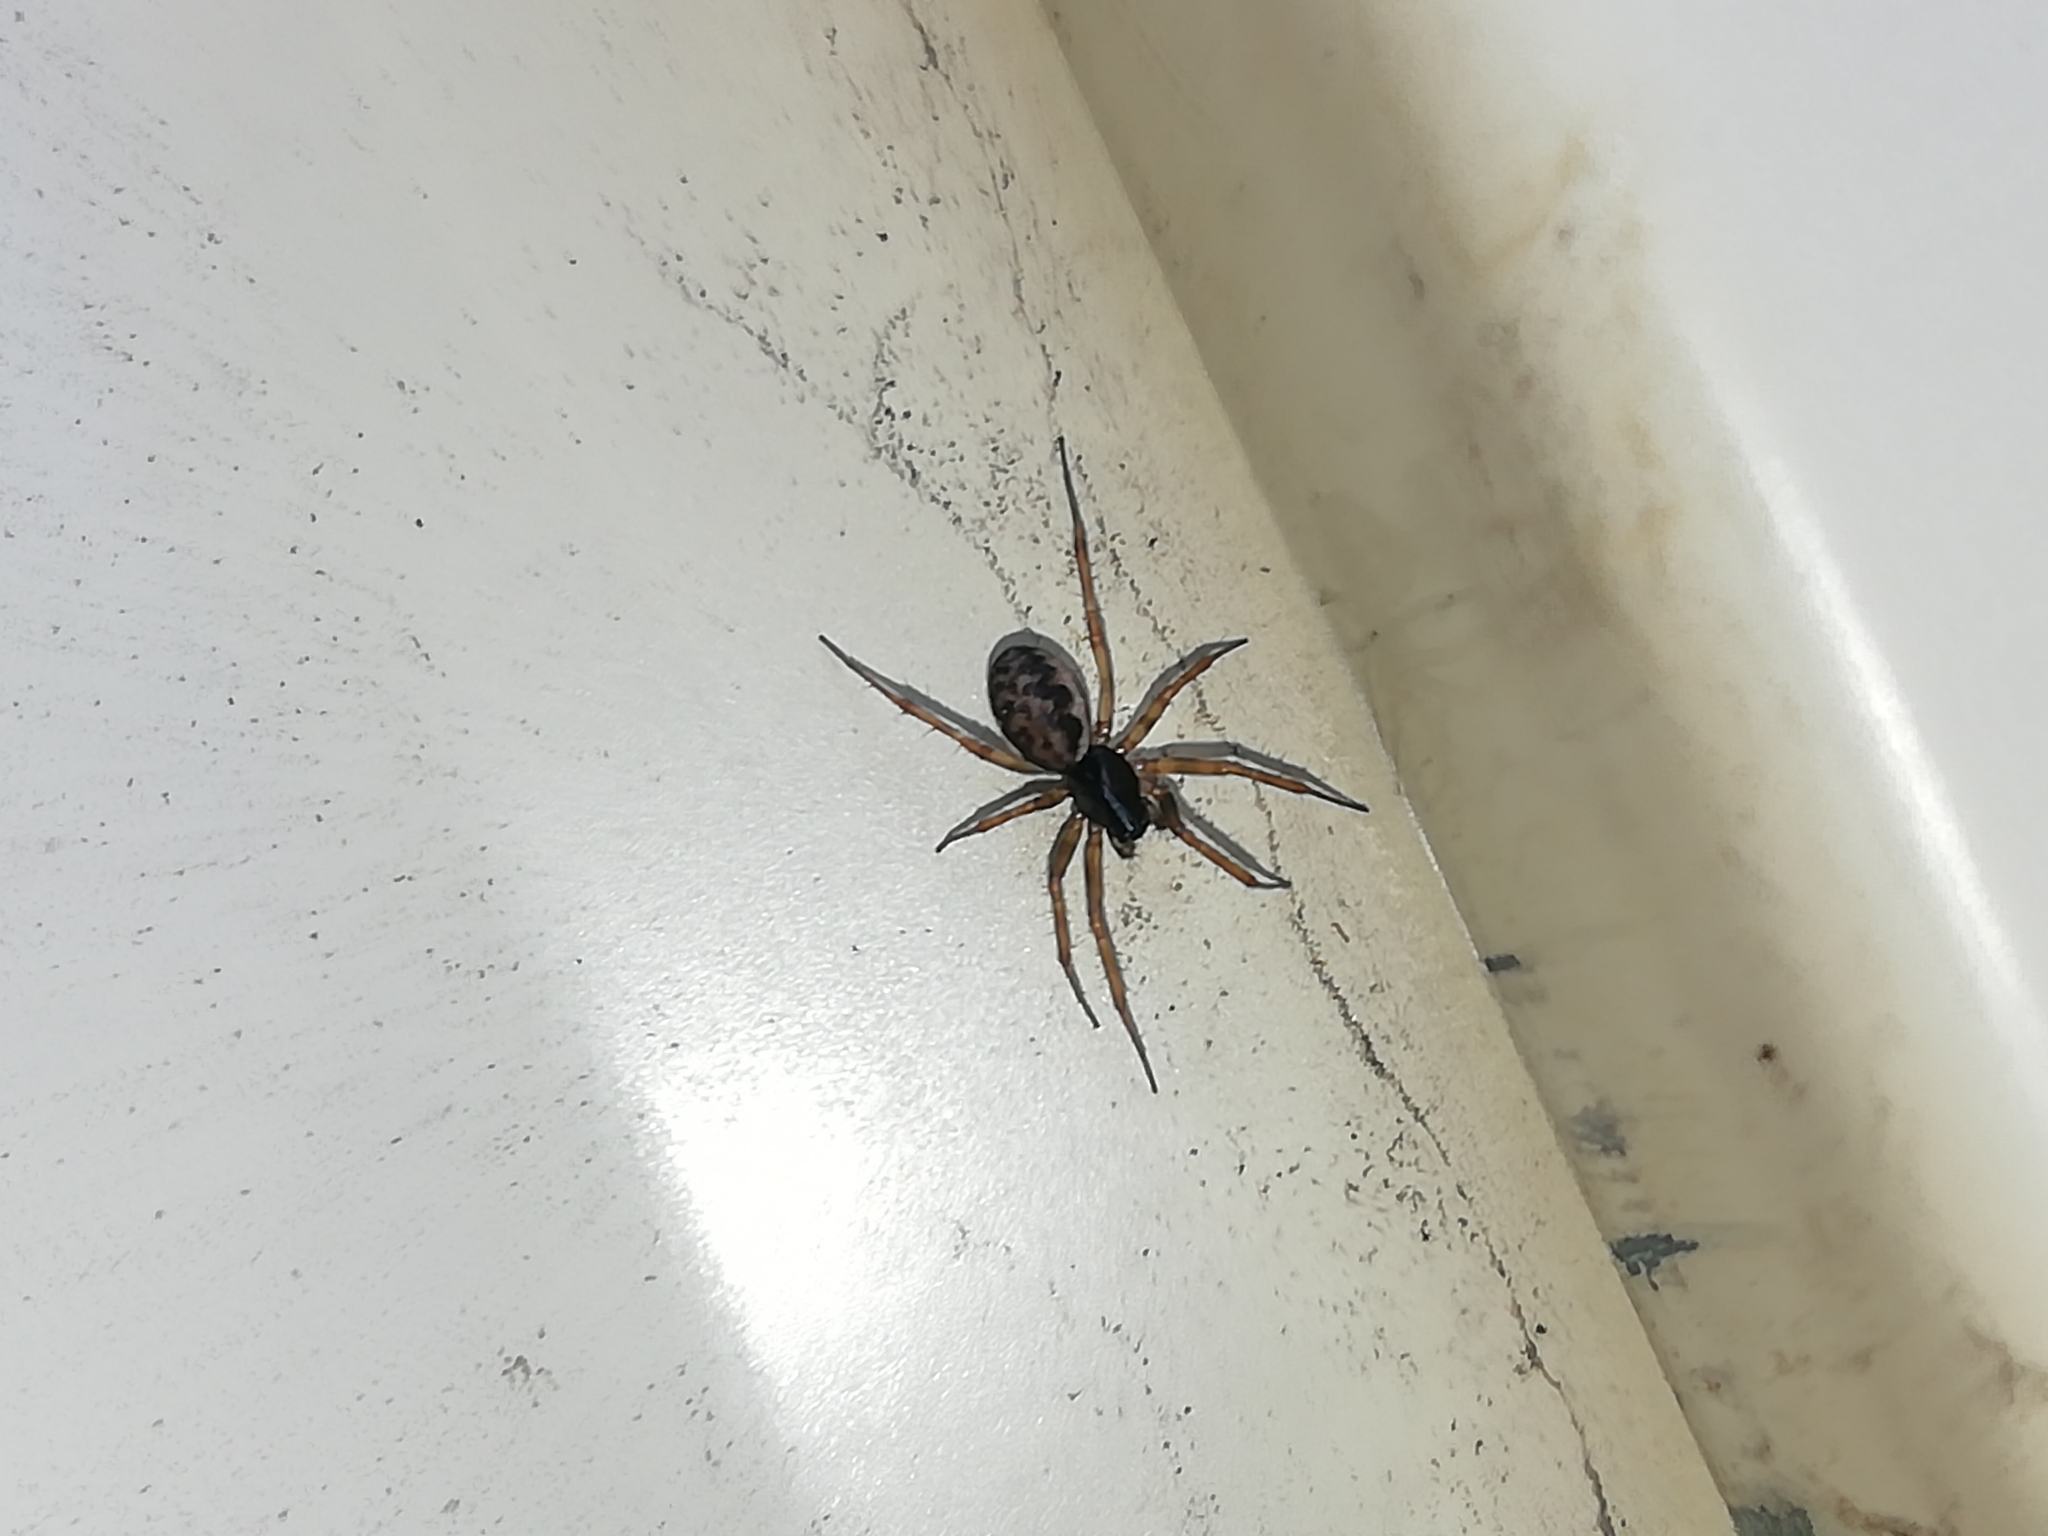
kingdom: Animalia
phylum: Arthropoda
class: Arachnida
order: Araneae
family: Linyphiidae
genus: Neriene
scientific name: Neriene clathrata
